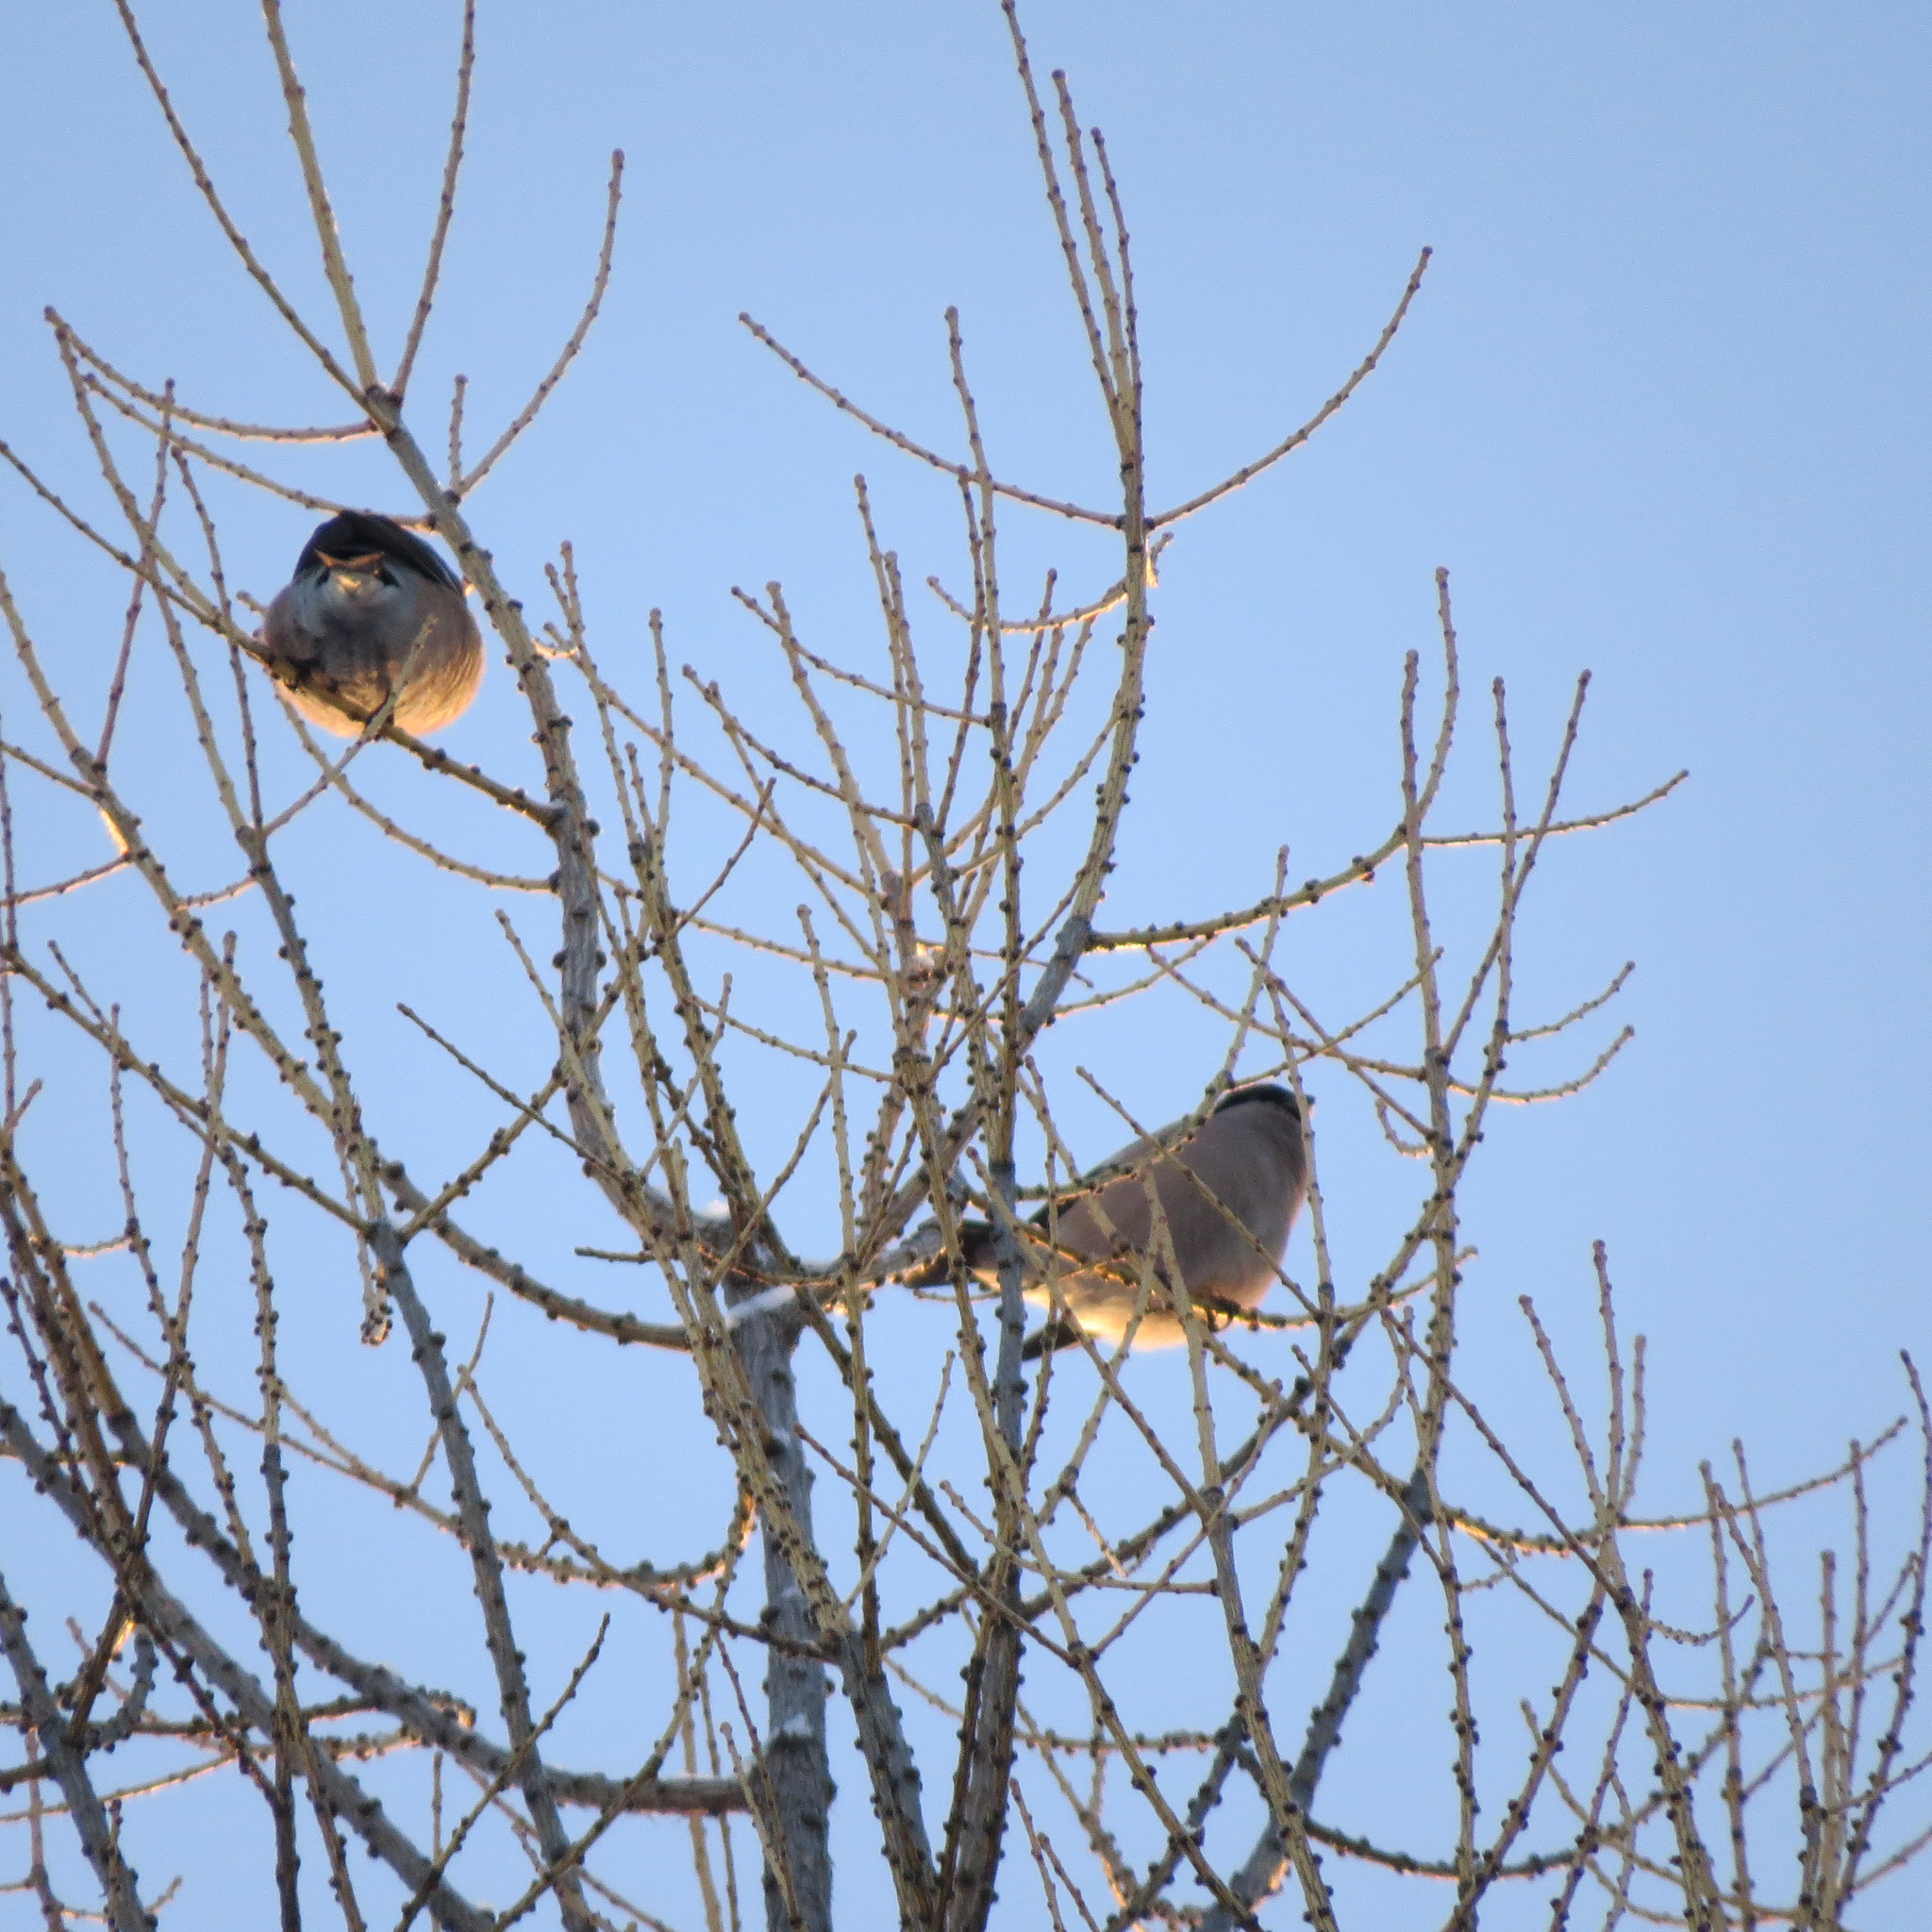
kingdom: Animalia
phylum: Chordata
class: Aves
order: Passeriformes
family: Fringillidae
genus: Pyrrhula
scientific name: Pyrrhula pyrrhula
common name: Eurasian bullfinch
